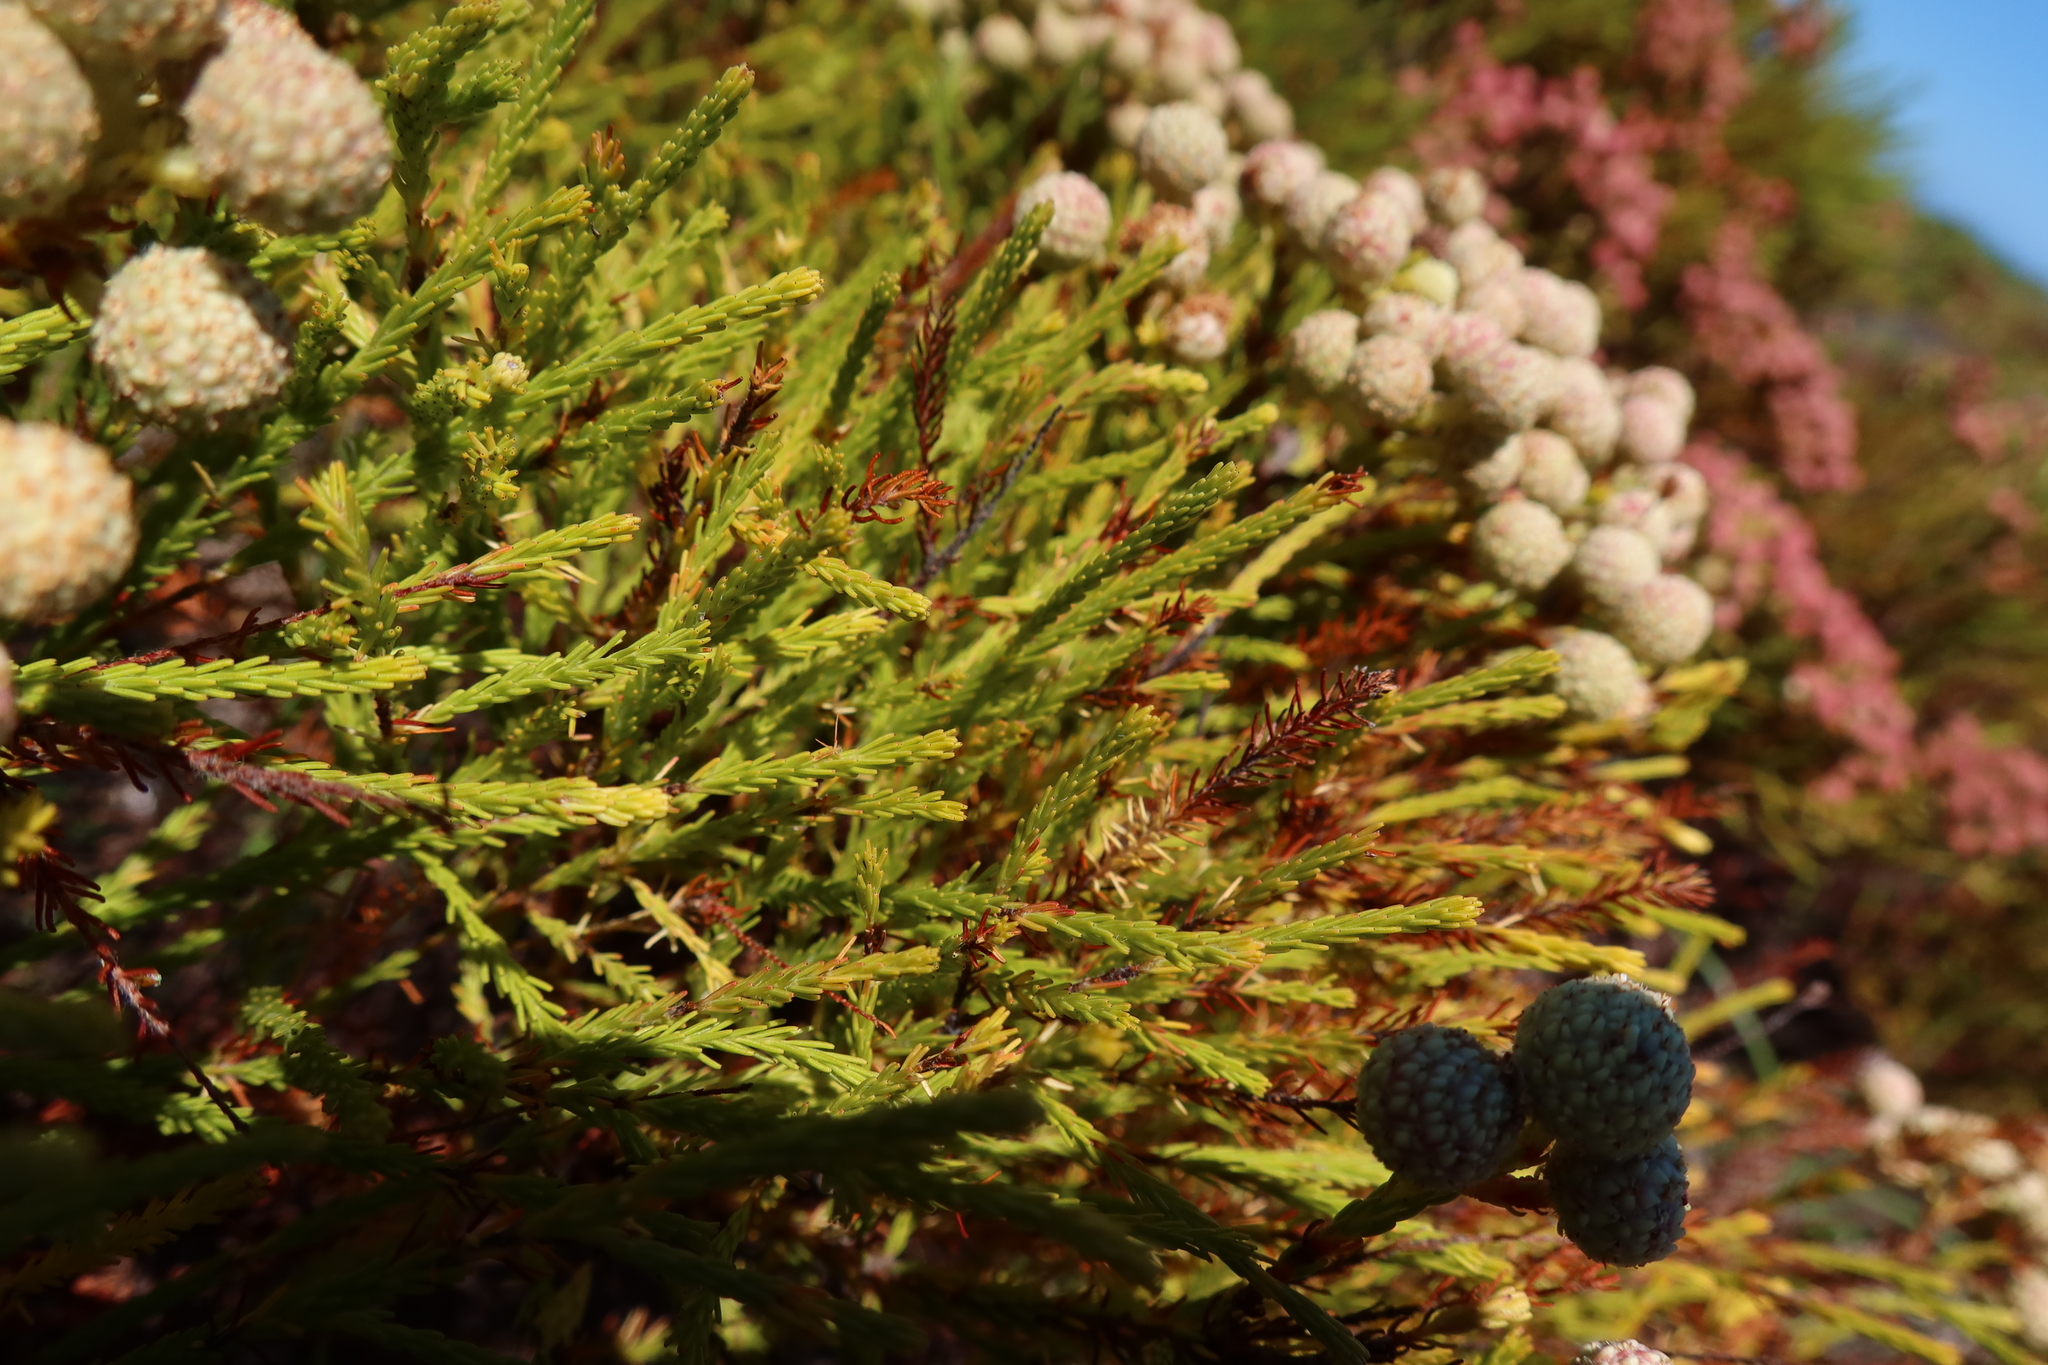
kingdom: Plantae
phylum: Tracheophyta
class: Magnoliopsida
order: Bruniales
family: Bruniaceae
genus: Berzelia
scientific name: Berzelia lanuginosa
